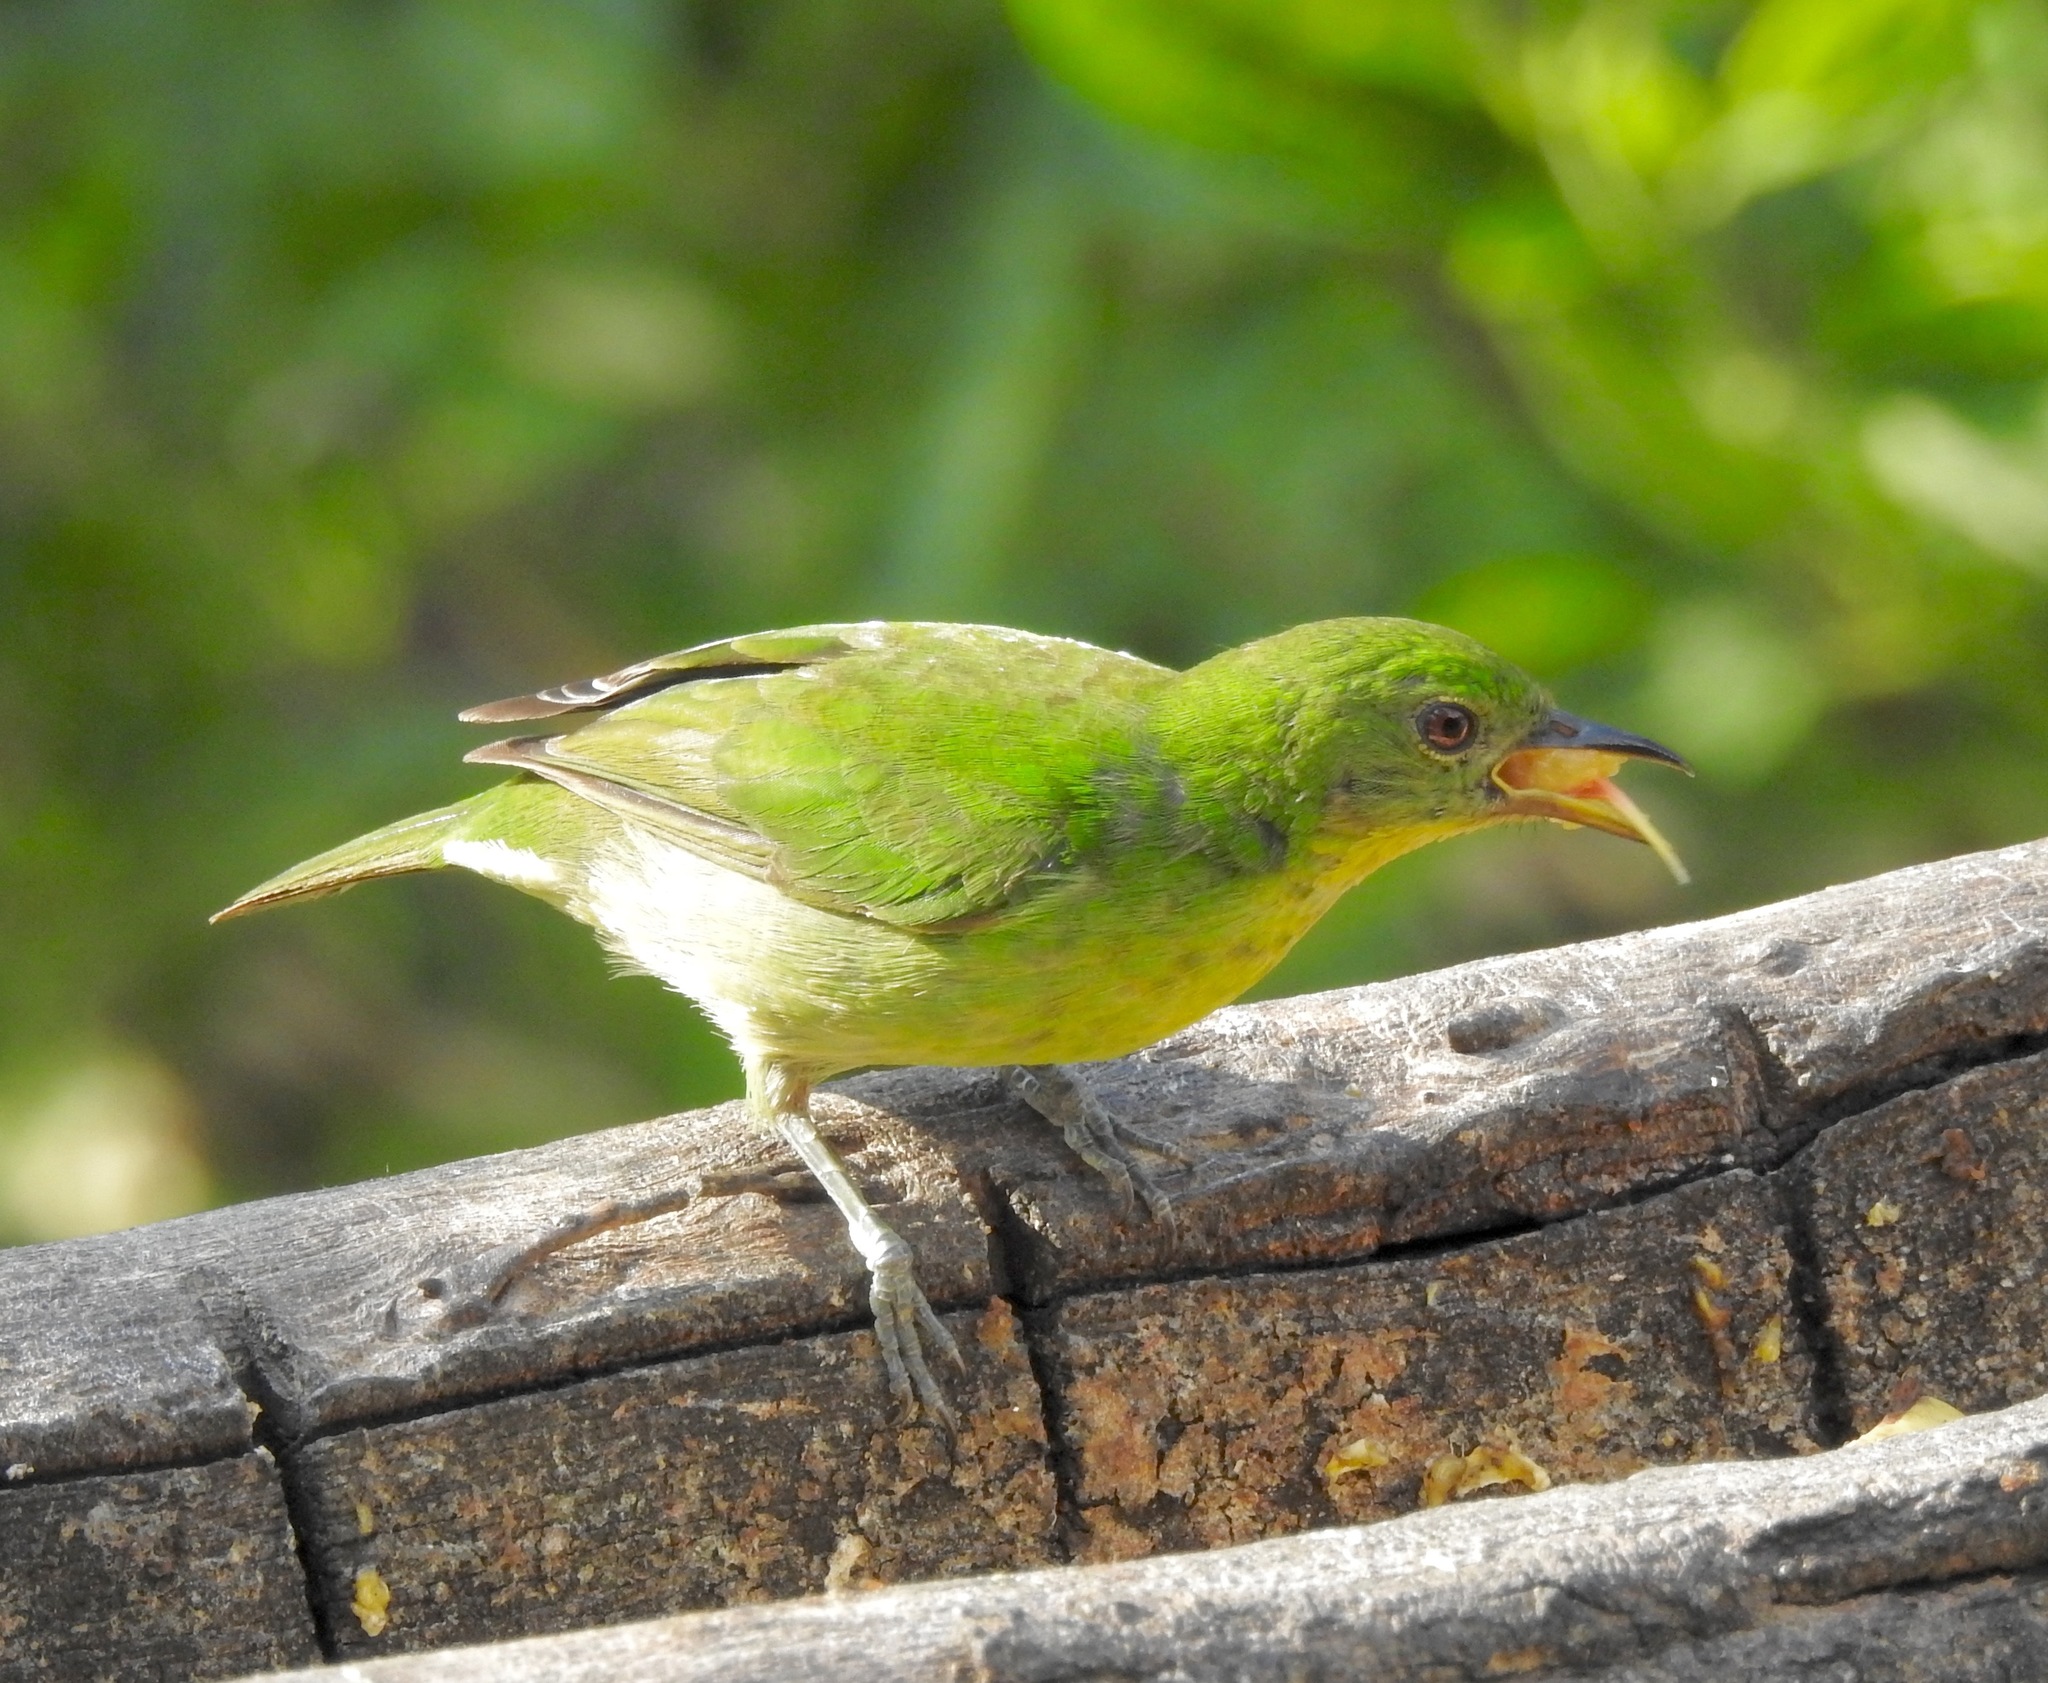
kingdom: Animalia
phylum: Chordata
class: Aves
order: Passeriformes
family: Thraupidae
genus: Chlorophanes
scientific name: Chlorophanes spiza
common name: Green honeycreeper
